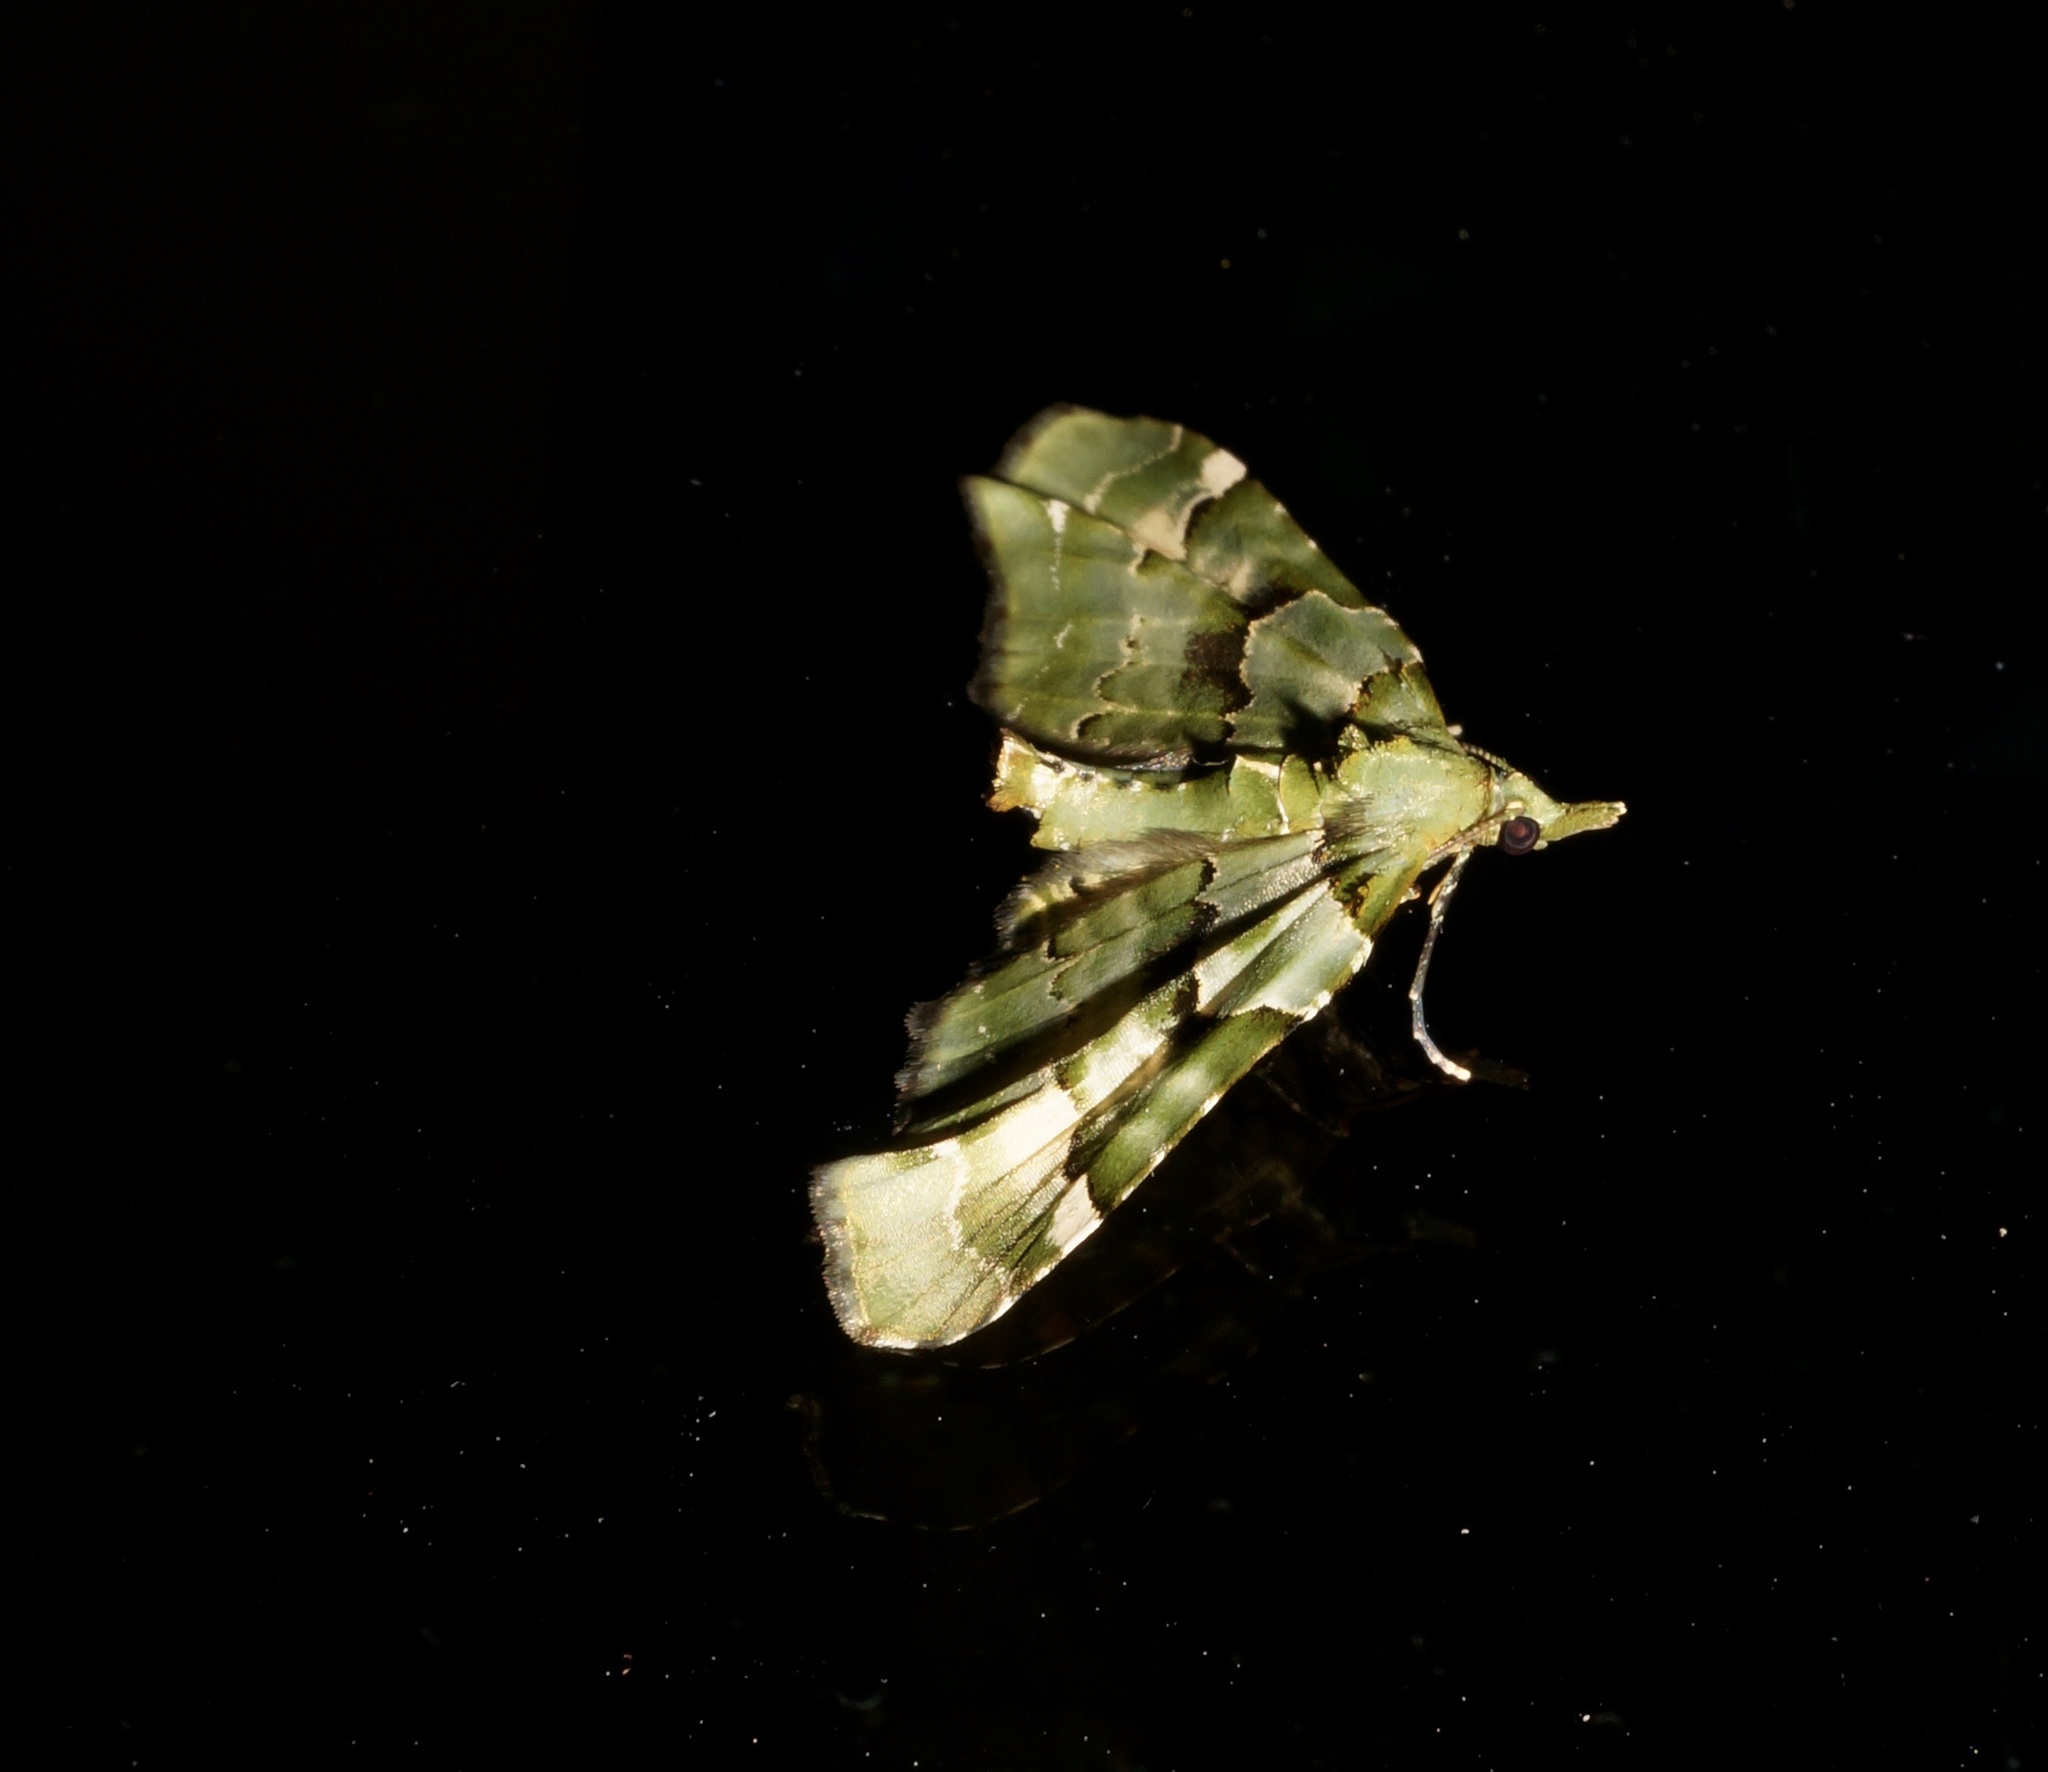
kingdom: Animalia
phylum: Arthropoda
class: Insecta
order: Lepidoptera
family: Geometridae
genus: Elvia
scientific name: Elvia glaucata
